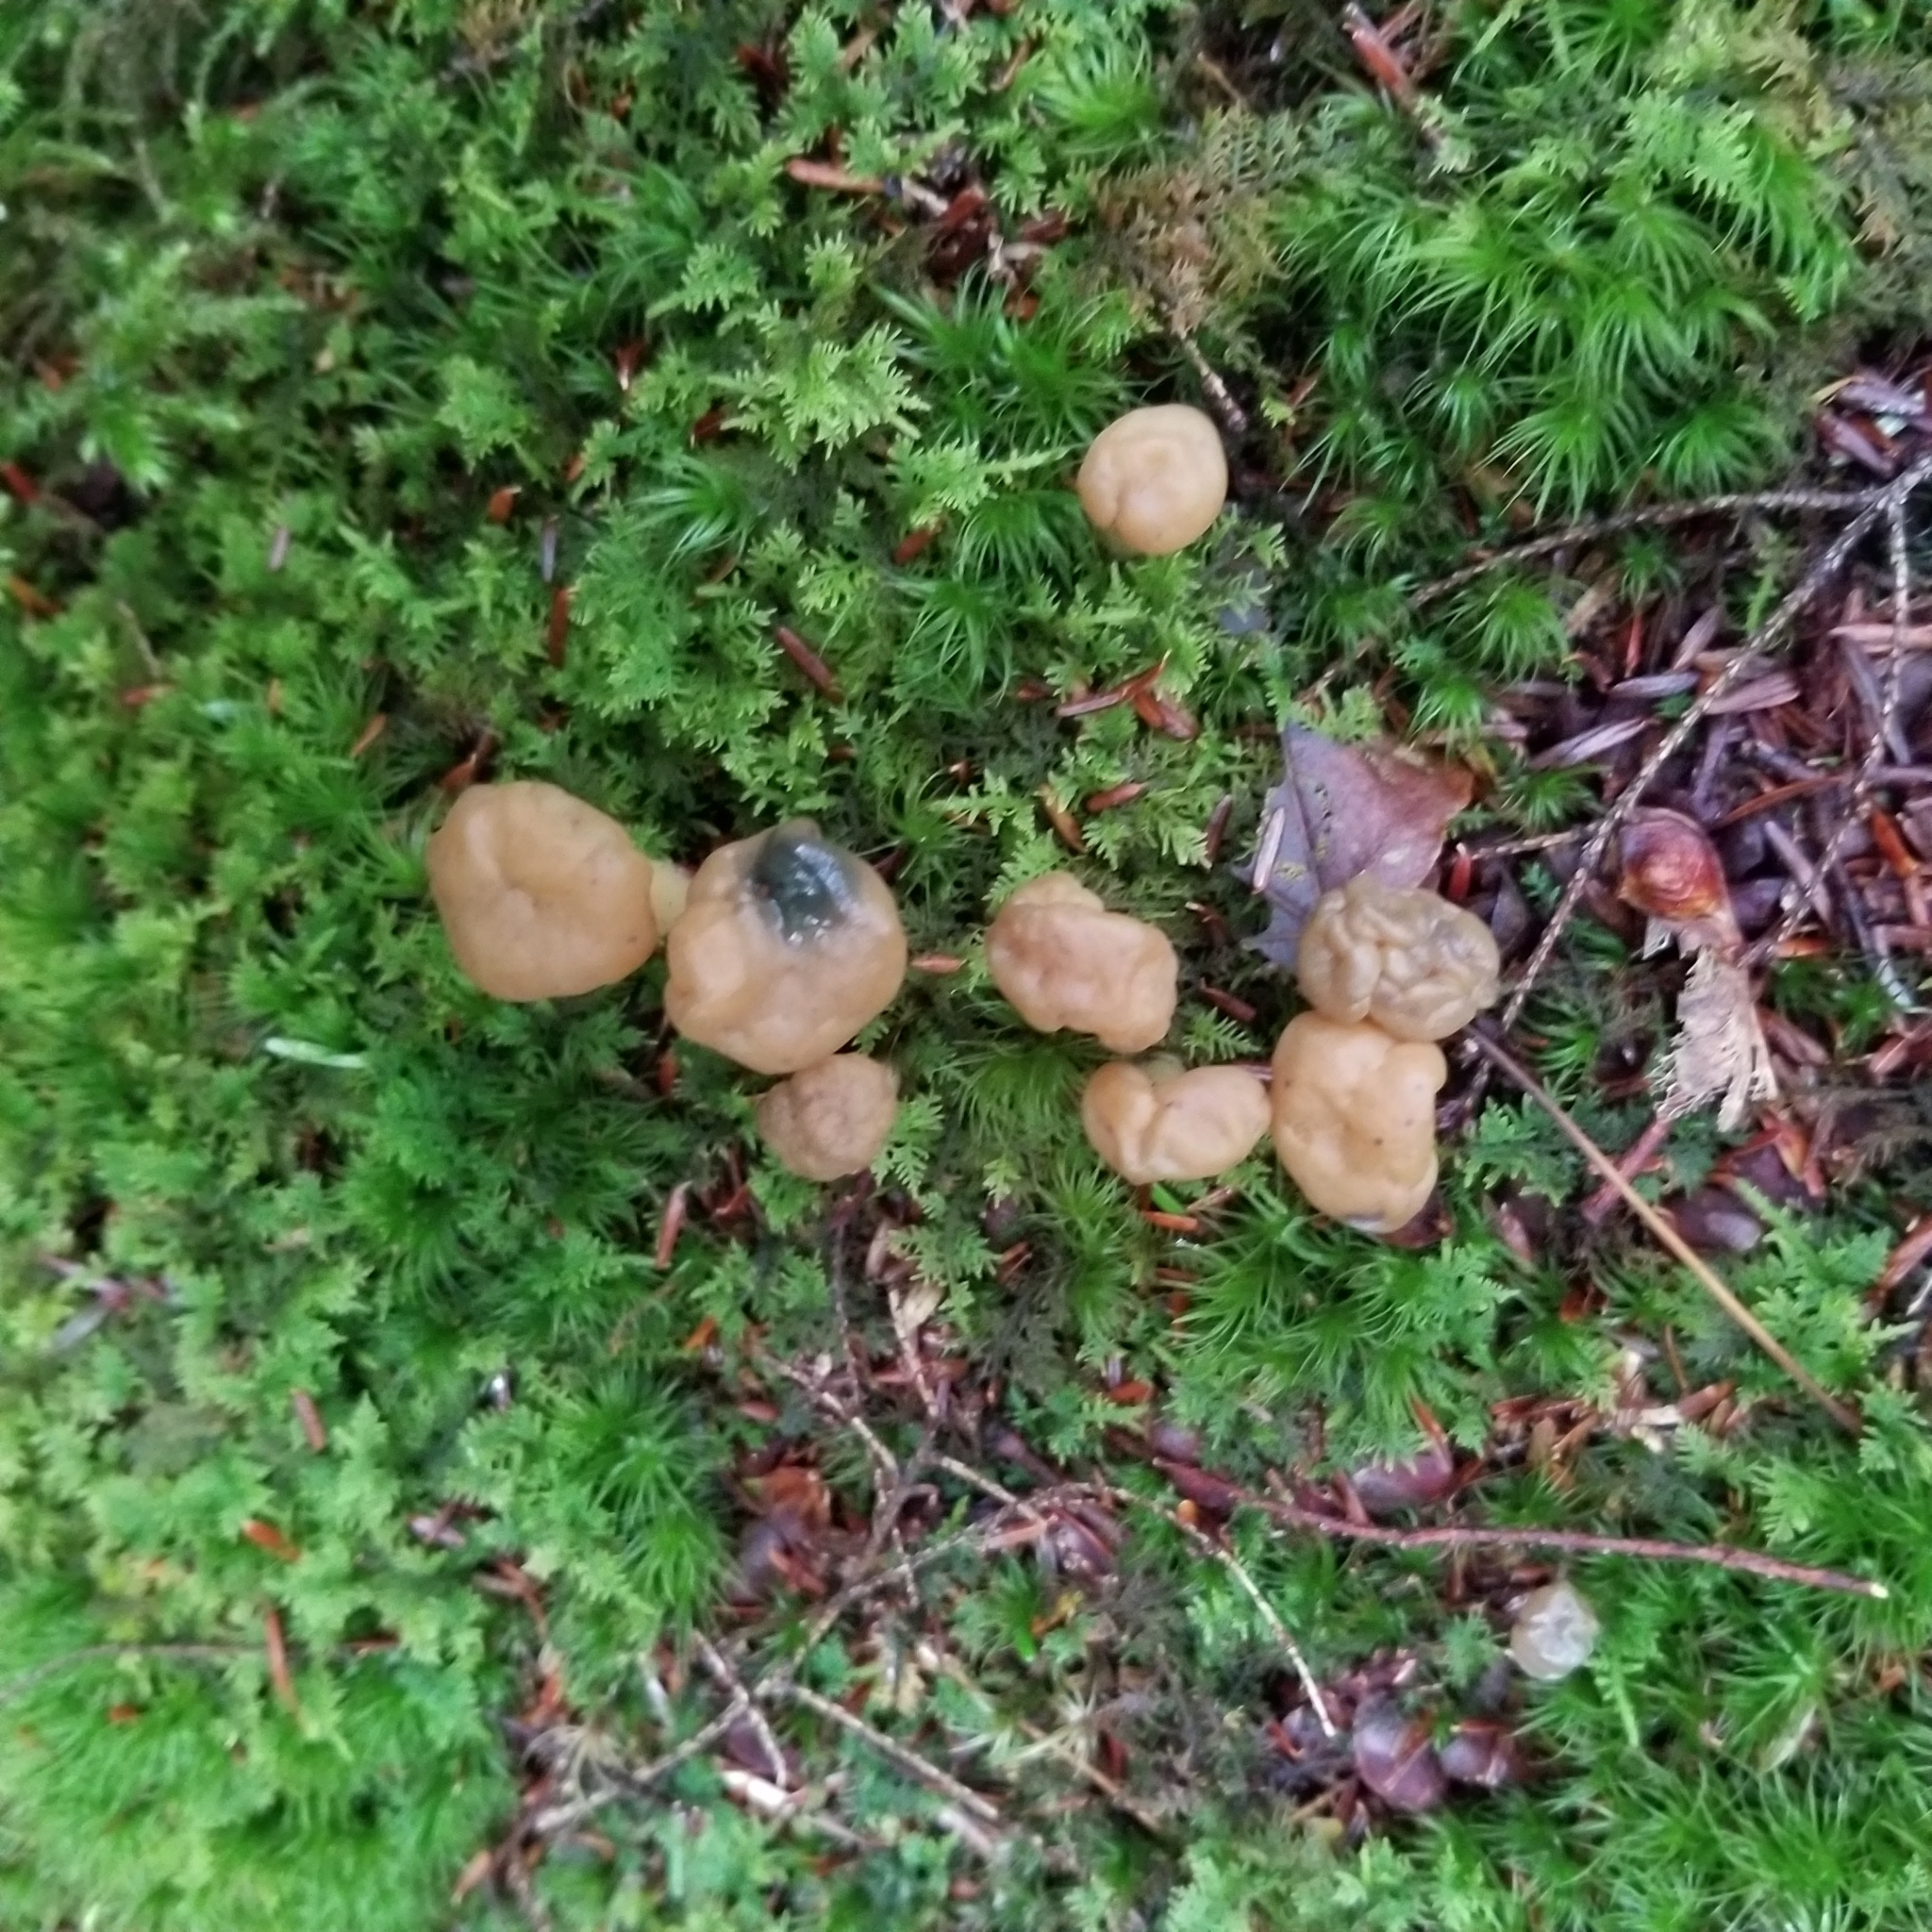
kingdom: Fungi
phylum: Ascomycota
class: Leotiomycetes
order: Leotiales
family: Leotiaceae
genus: Leotia
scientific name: Leotia lubrica
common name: Jellybaby
